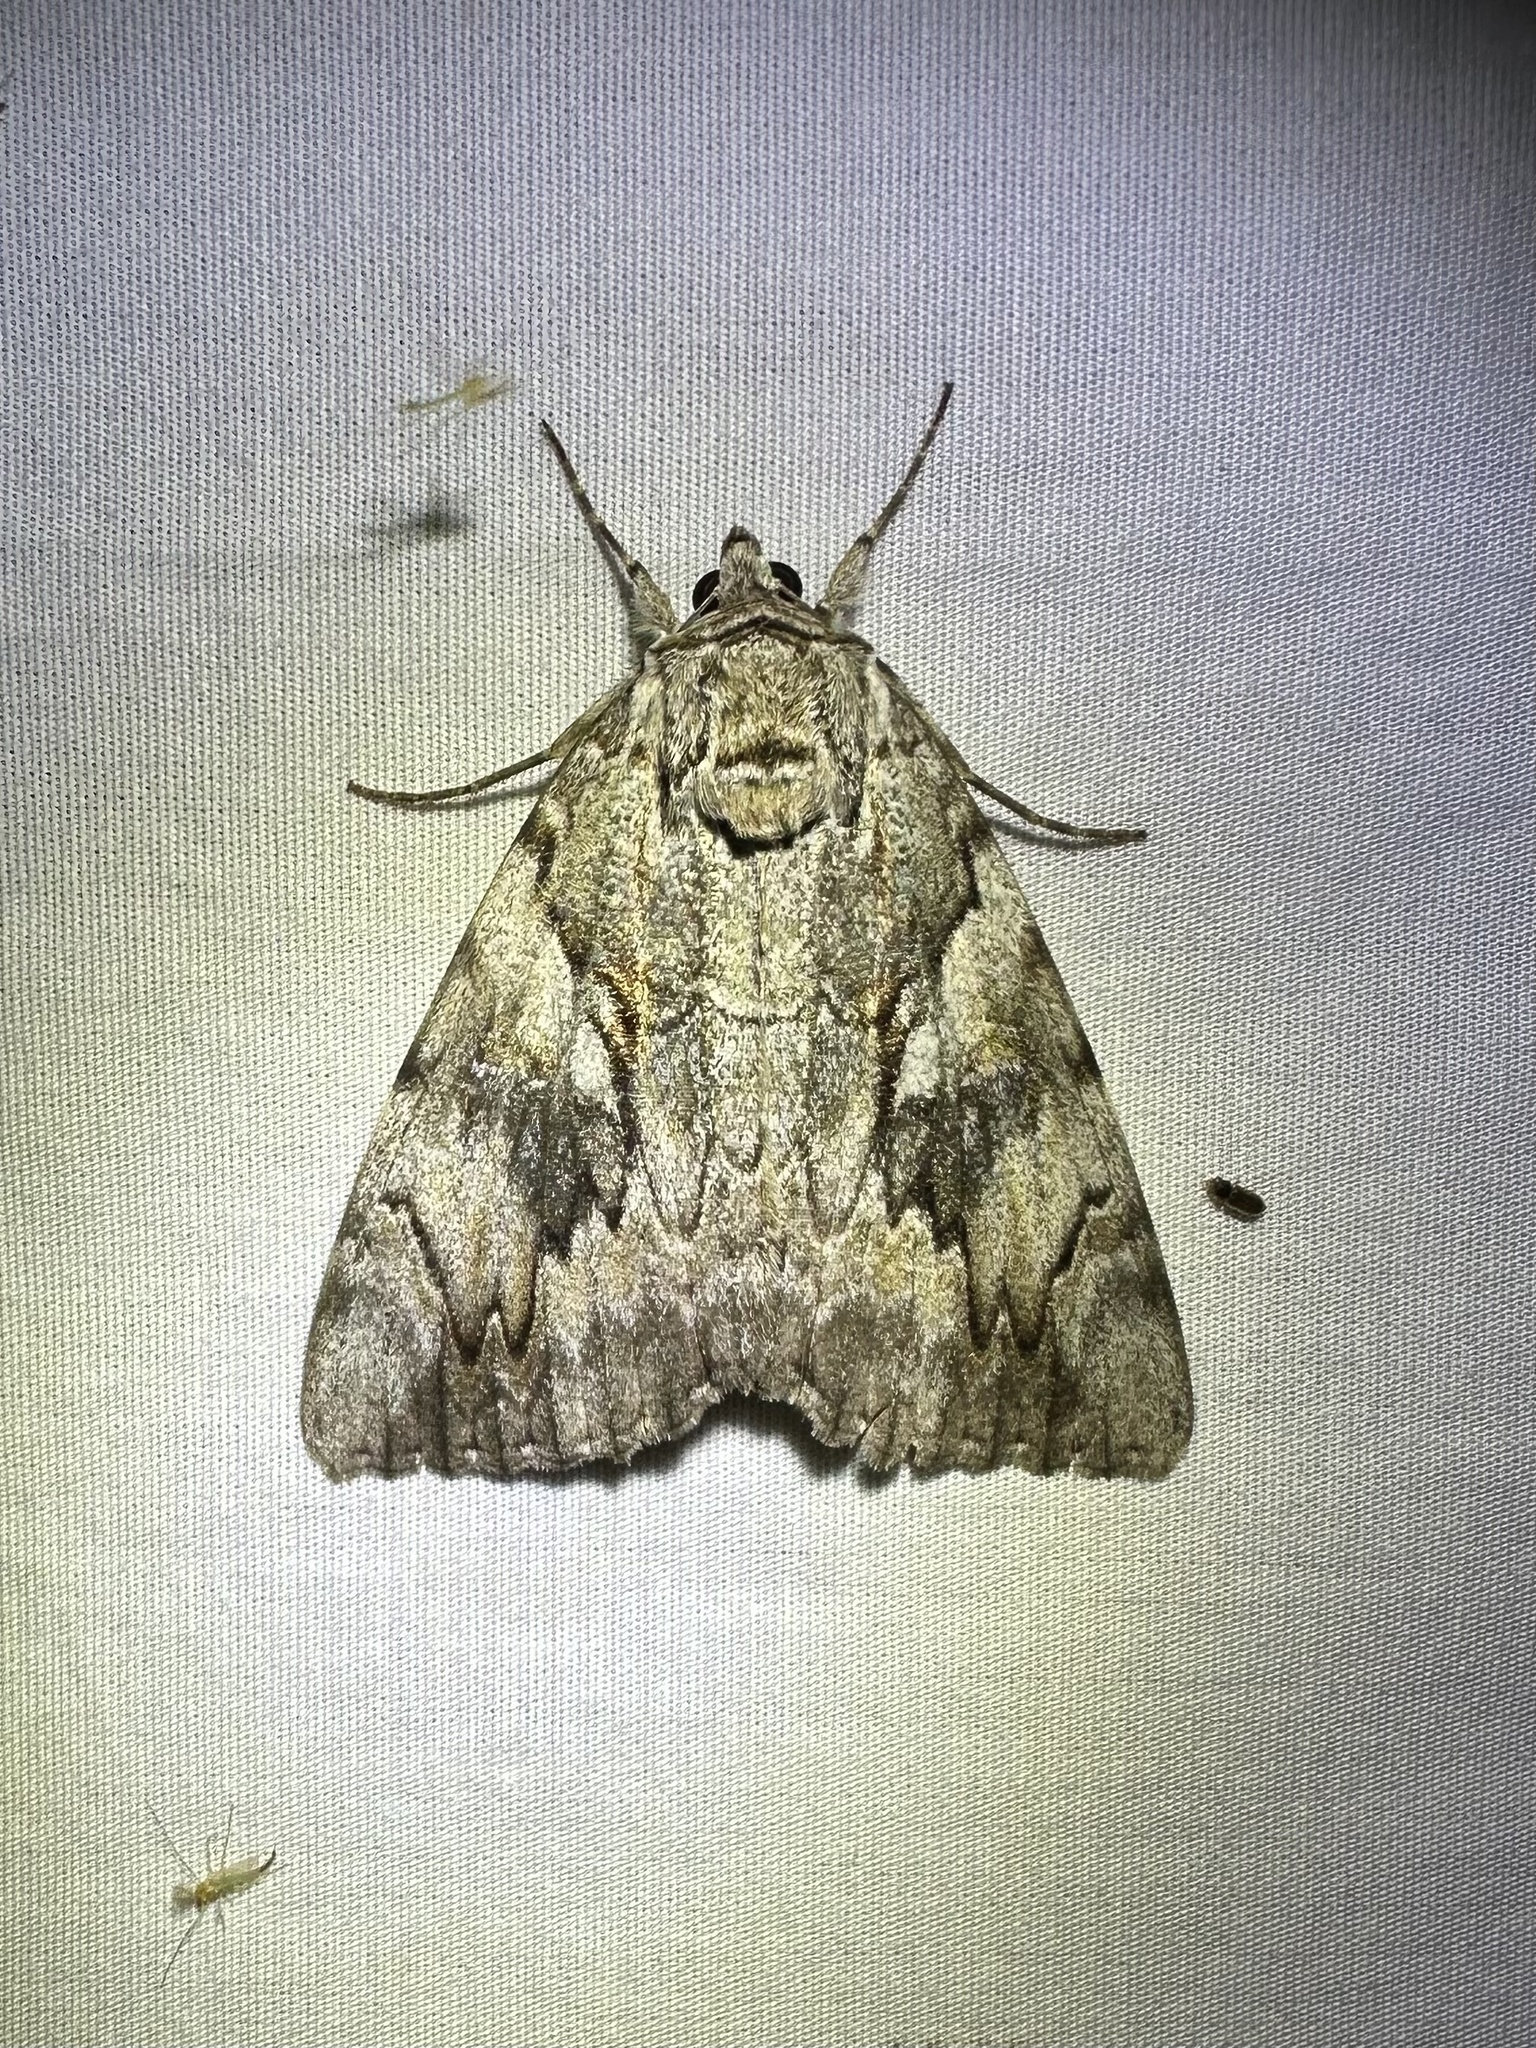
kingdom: Animalia
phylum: Arthropoda
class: Insecta
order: Lepidoptera
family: Erebidae
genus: Catocala
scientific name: Catocala cerogama
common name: Yellow banded underwing
